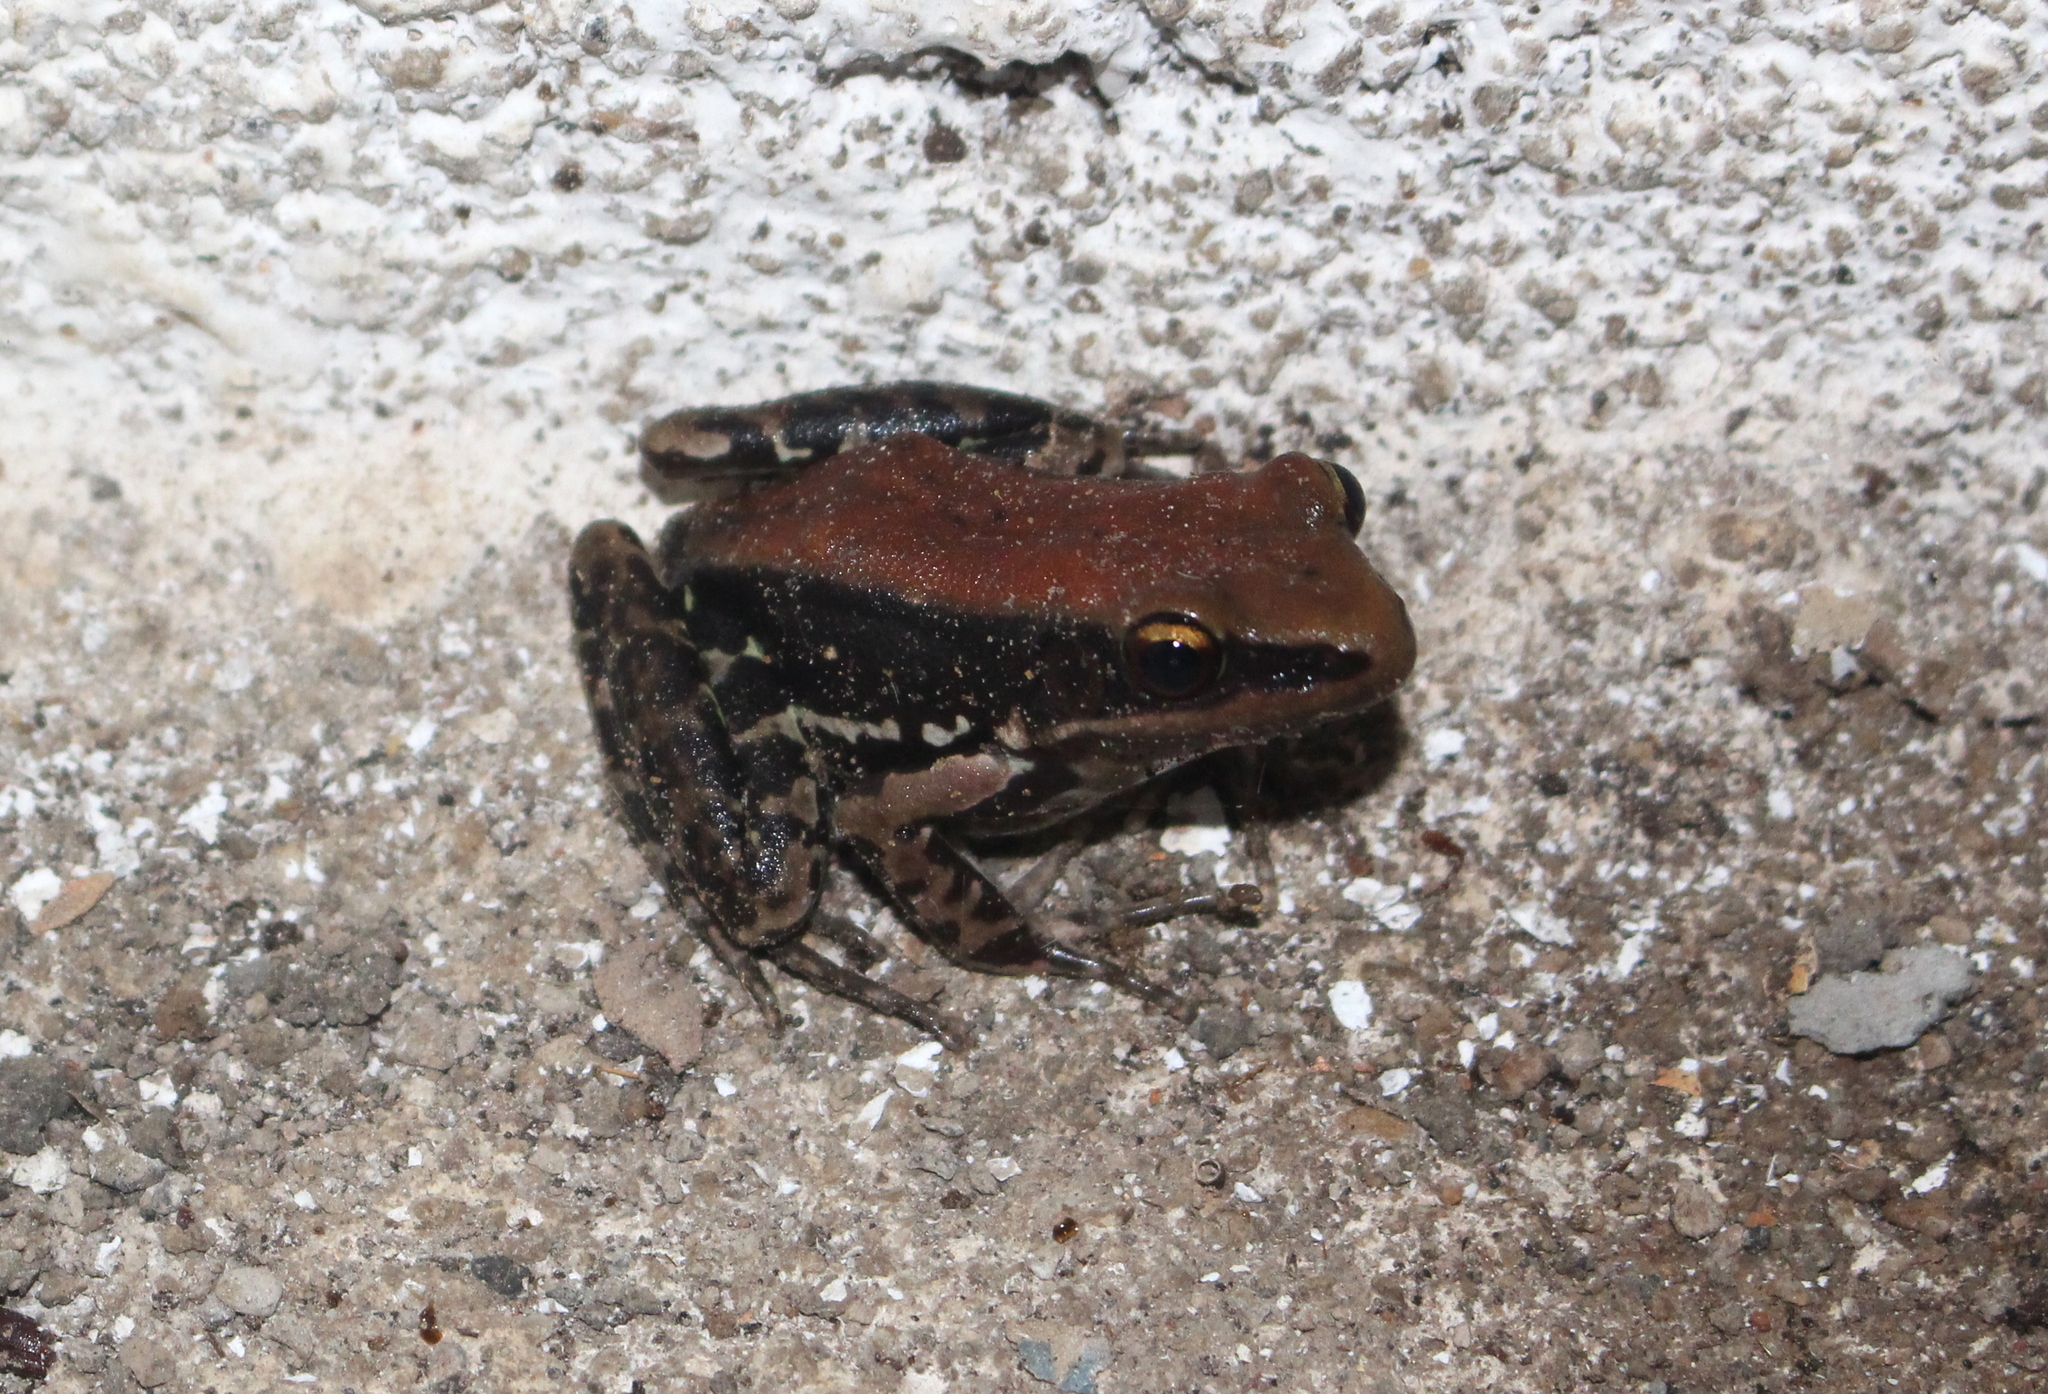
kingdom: Animalia
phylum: Chordata
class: Amphibia
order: Anura
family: Ranidae
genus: Hydrophylax
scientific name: Hydrophylax bahuvistara
